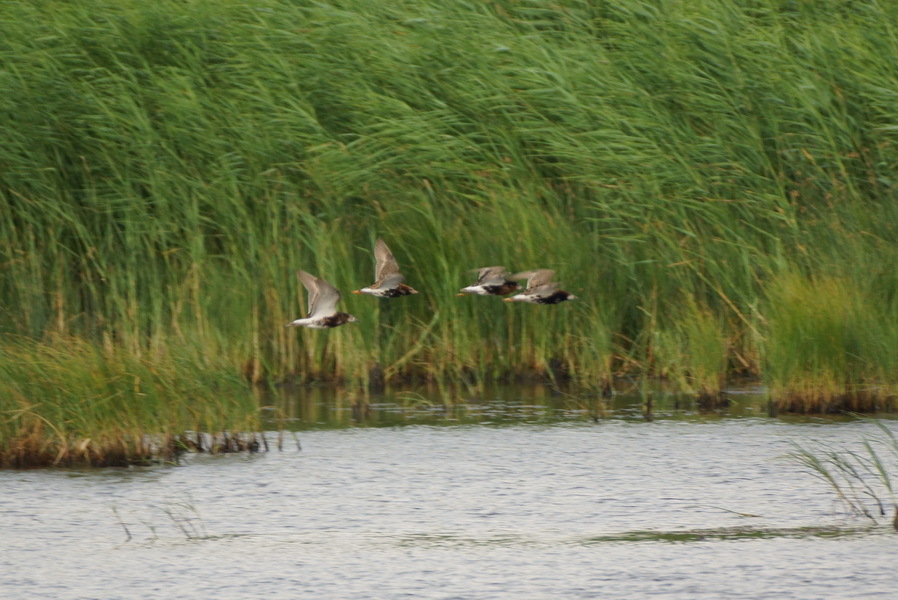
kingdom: Animalia
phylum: Chordata
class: Aves
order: Charadriiformes
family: Scolopacidae
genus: Calidris
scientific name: Calidris pugnax
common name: Ruff
